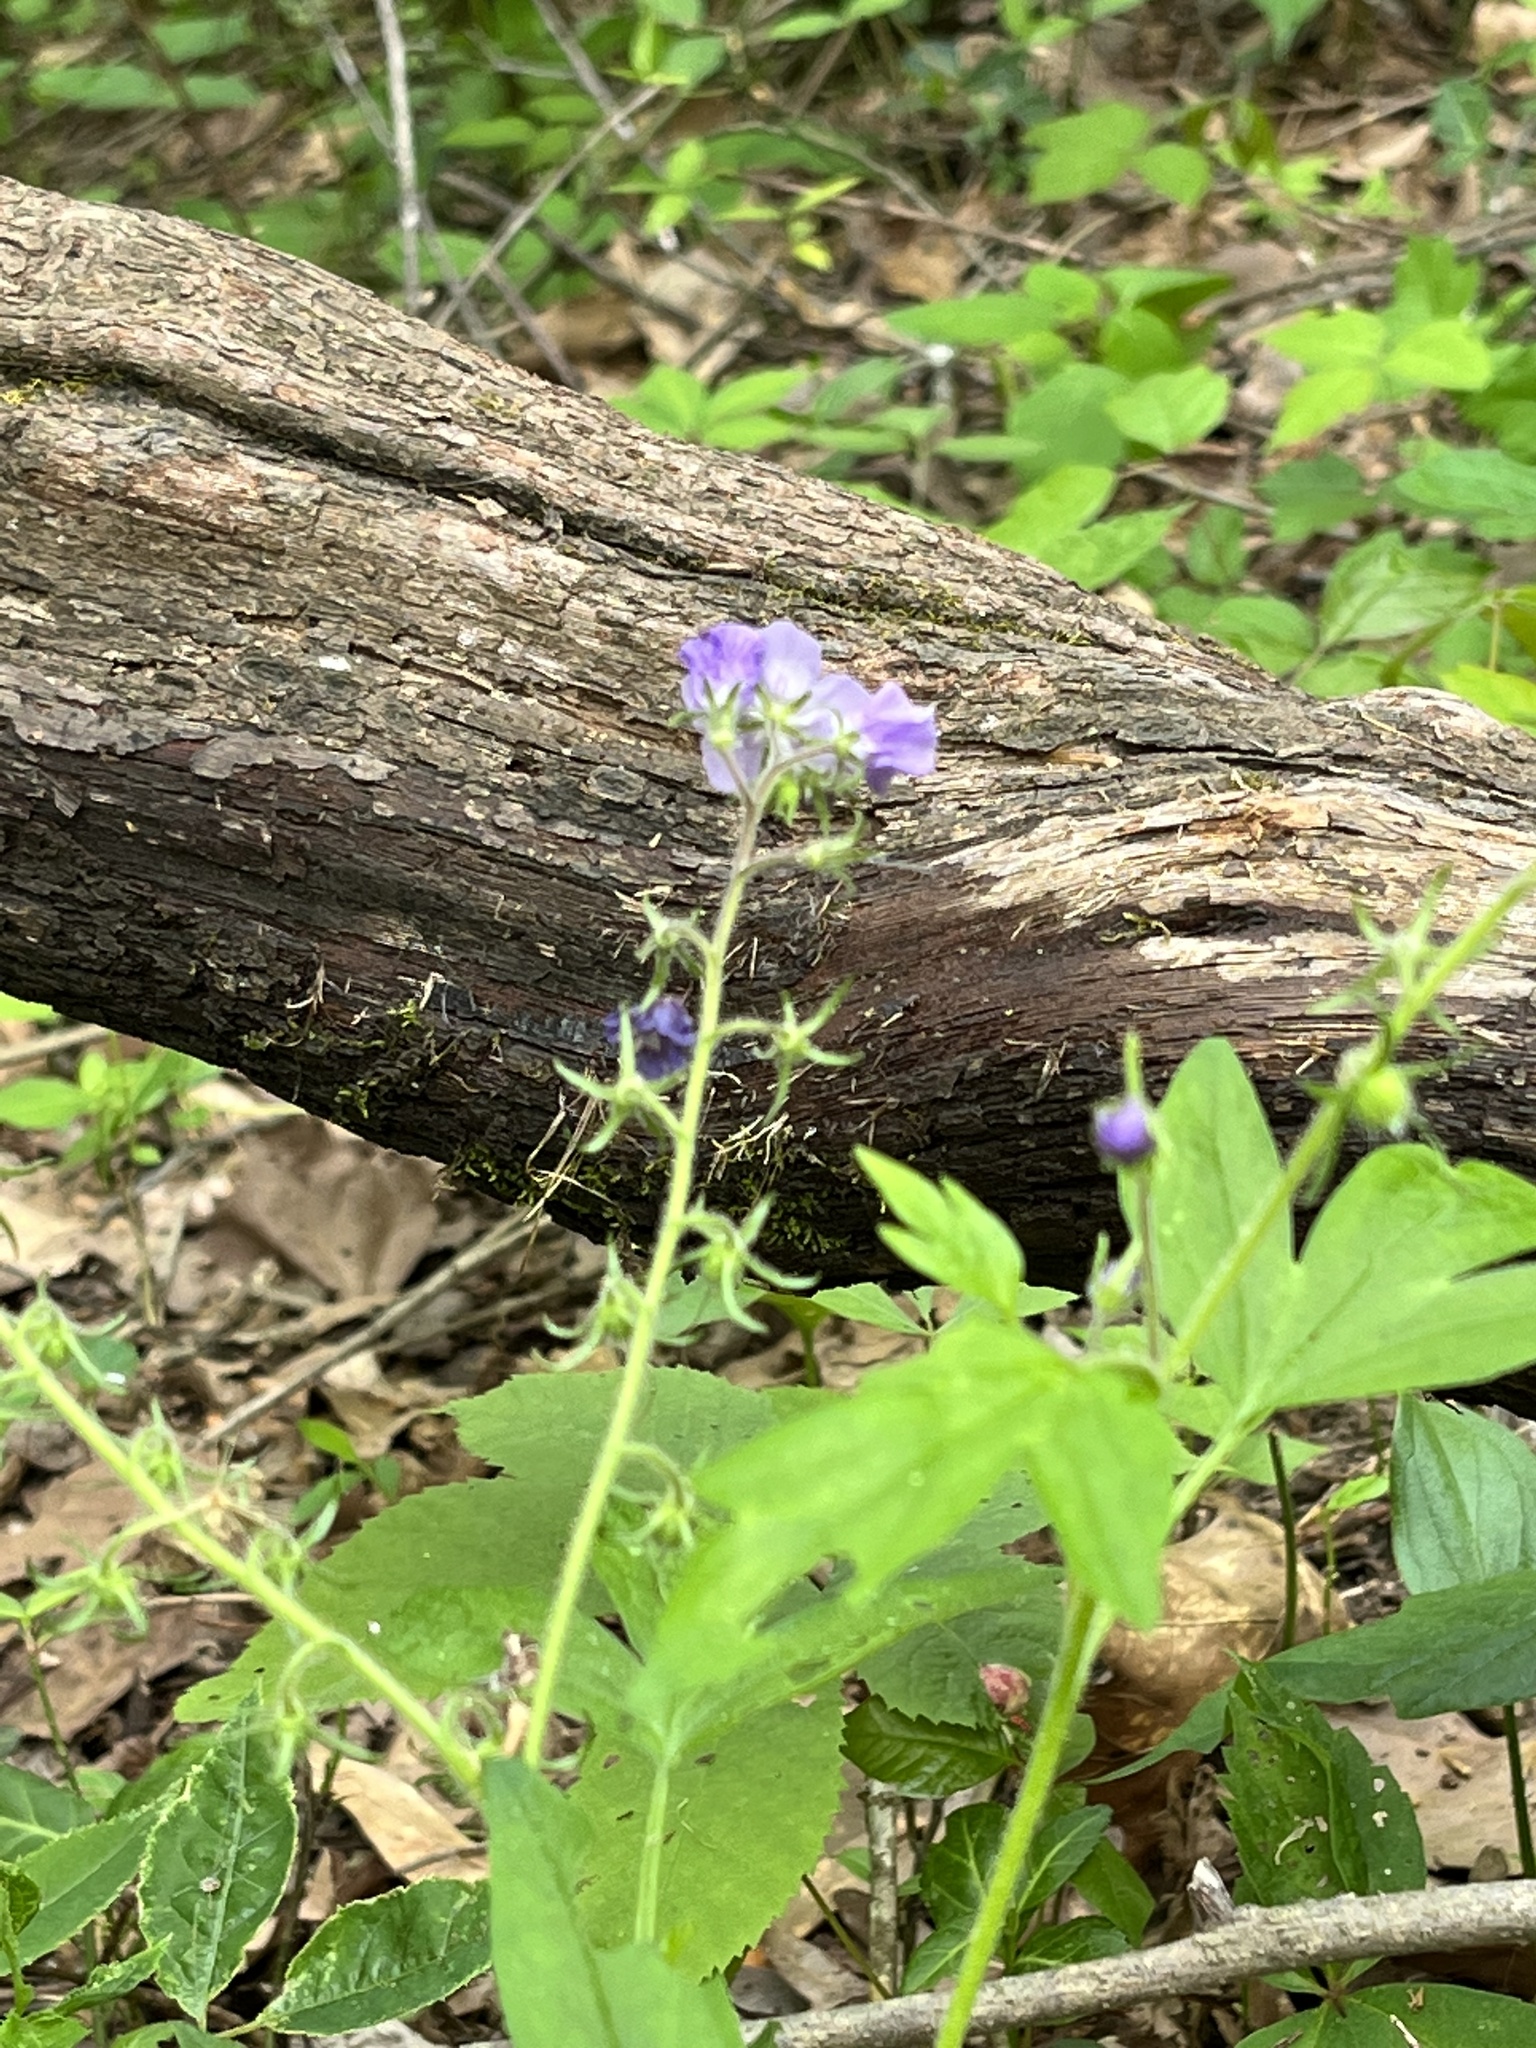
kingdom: Plantae
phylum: Tracheophyta
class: Magnoliopsida
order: Boraginales
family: Hydrophyllaceae
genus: Phacelia
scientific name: Phacelia bipinnatifida
